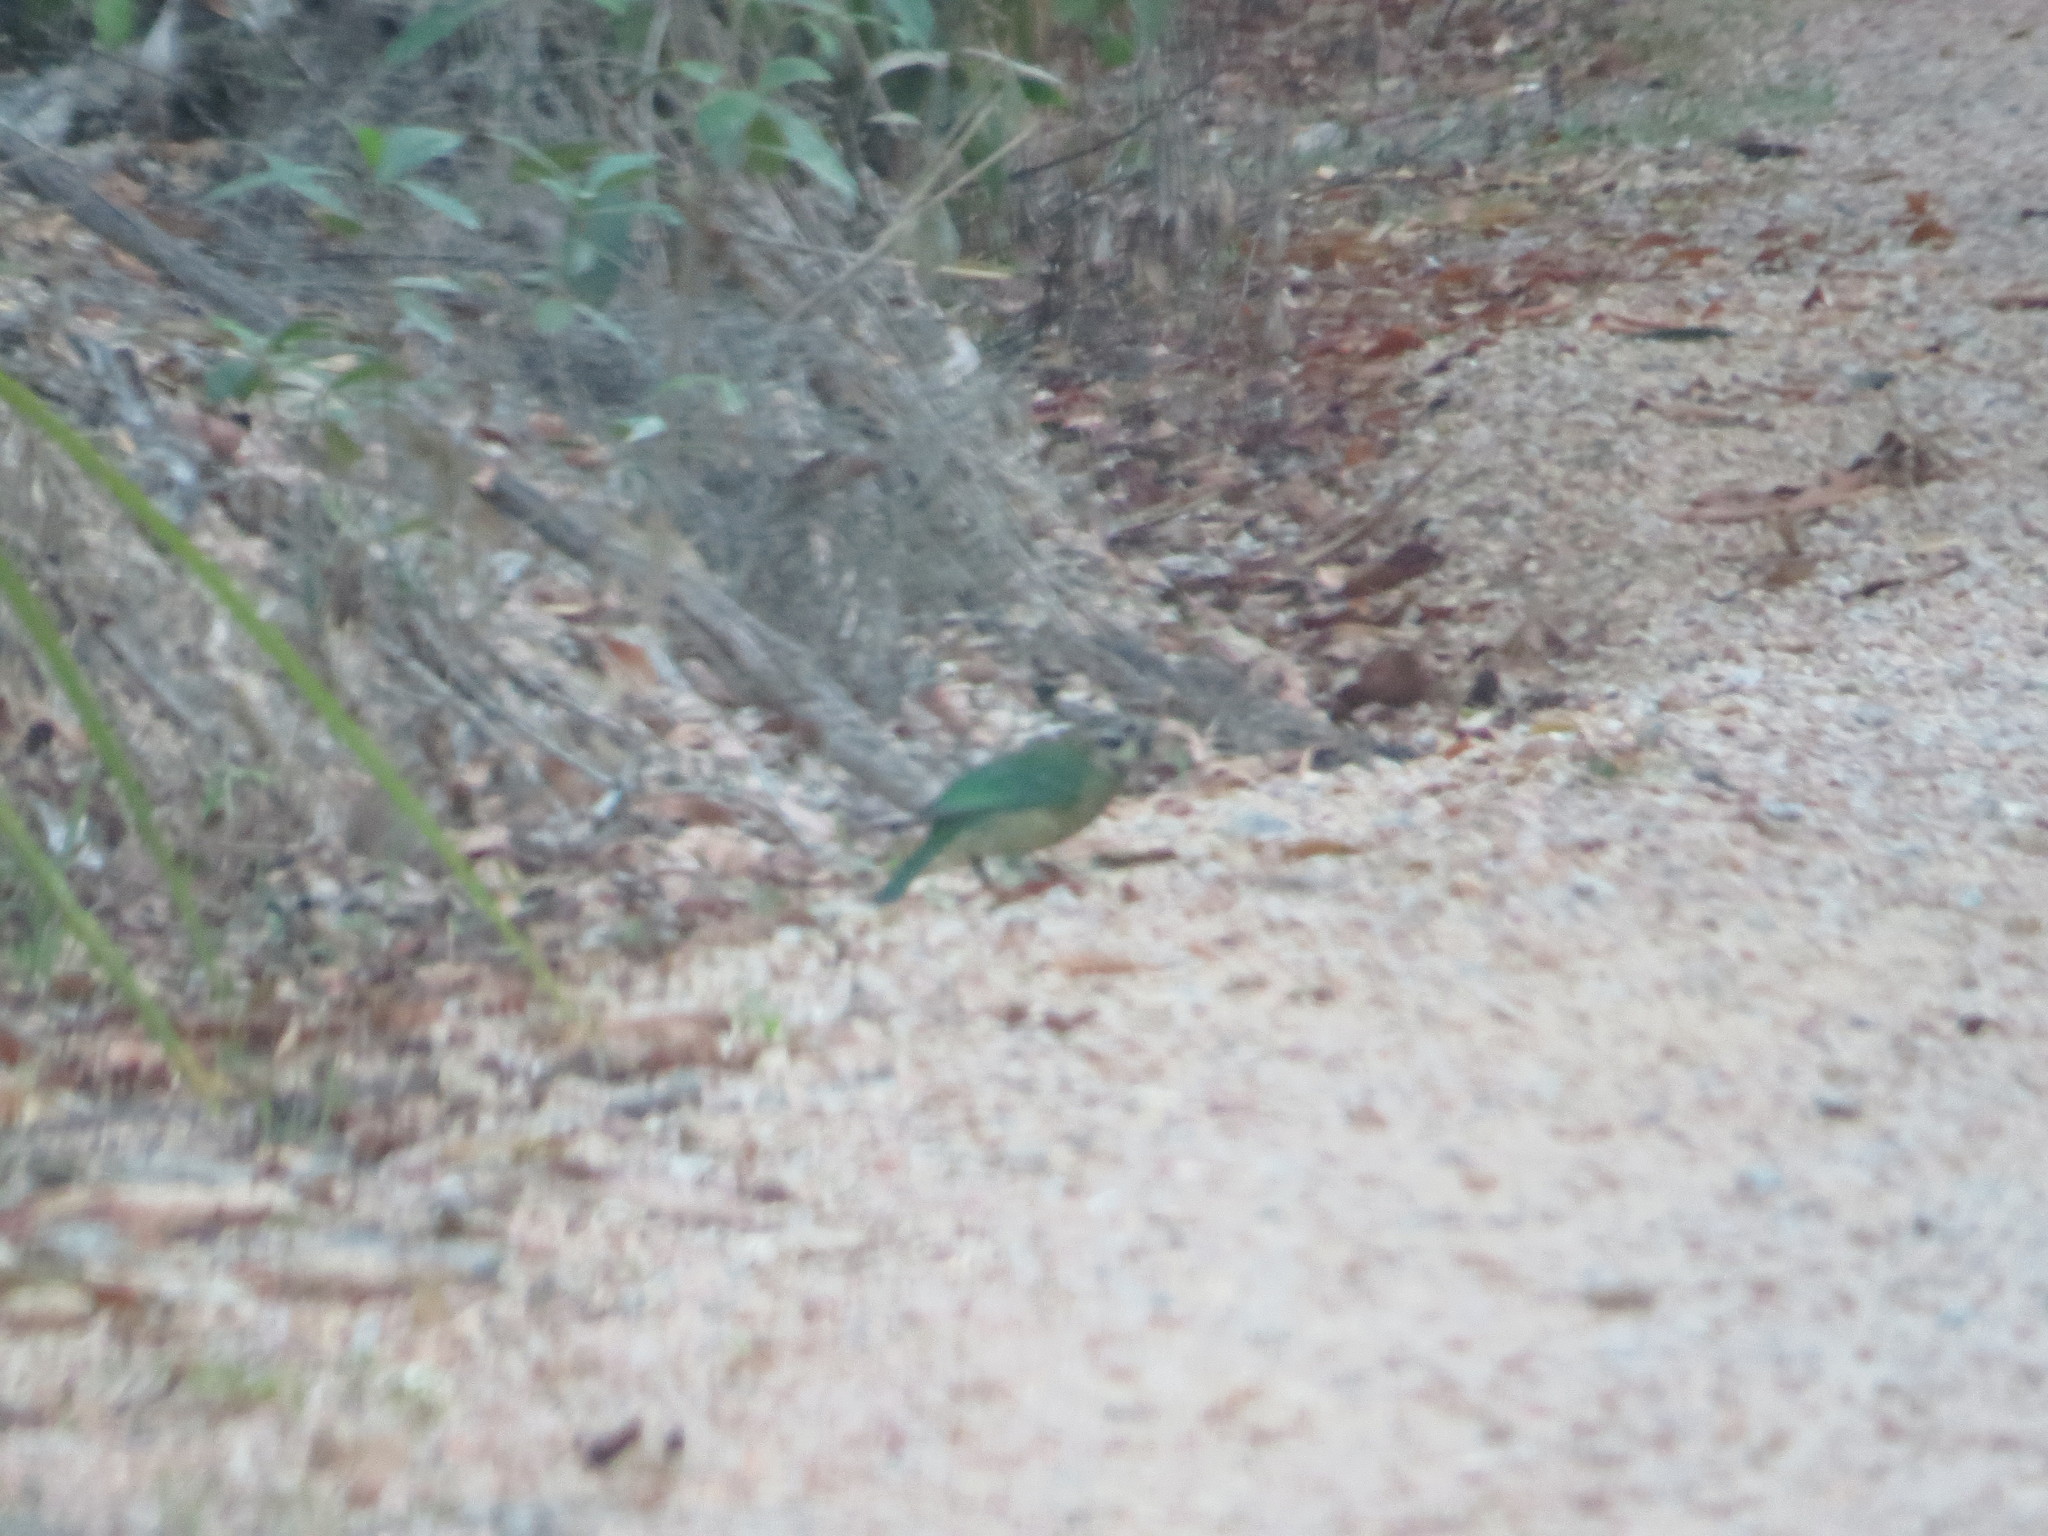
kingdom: Animalia
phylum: Chordata
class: Aves
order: Passeriformes
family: Ptilonorhynchidae
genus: Ailuroedus
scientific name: Ailuroedus maculosus
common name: Spotted catbird
